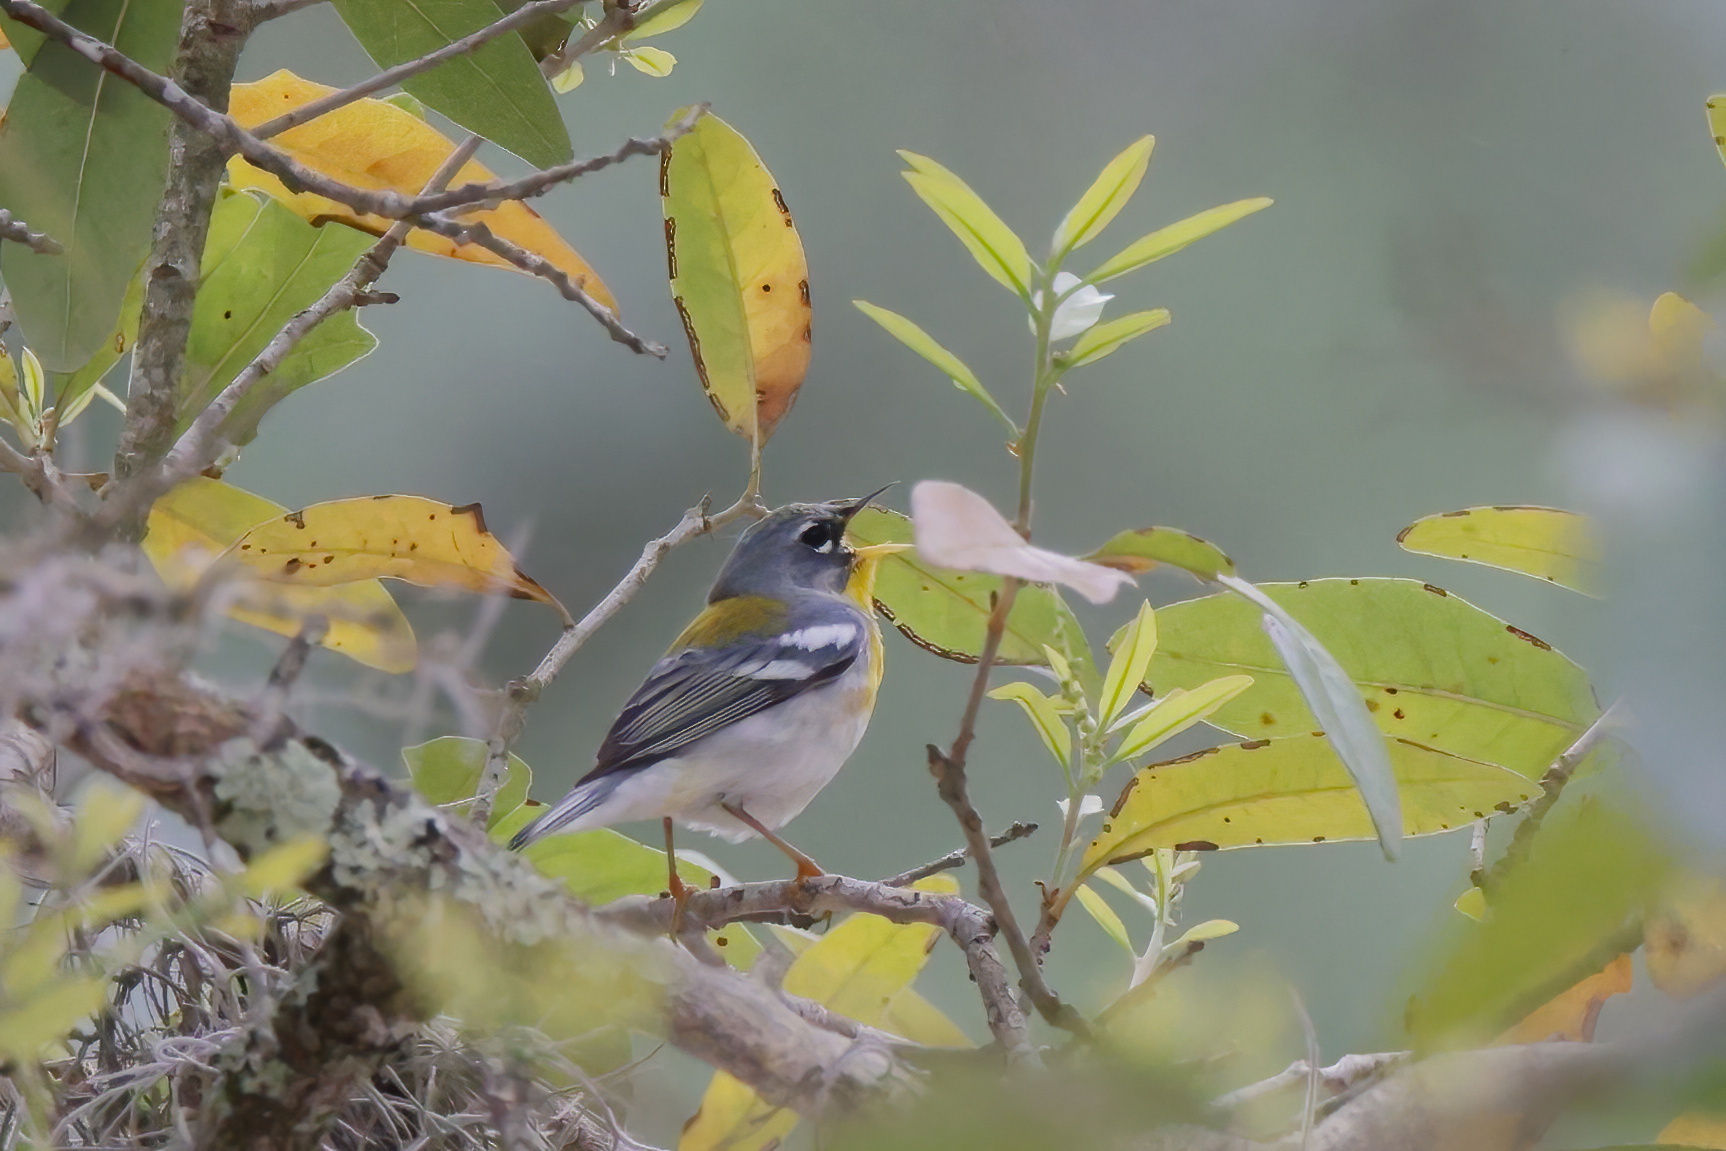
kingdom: Animalia
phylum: Chordata
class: Aves
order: Passeriformes
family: Parulidae
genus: Setophaga
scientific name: Setophaga americana
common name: Northern parula
